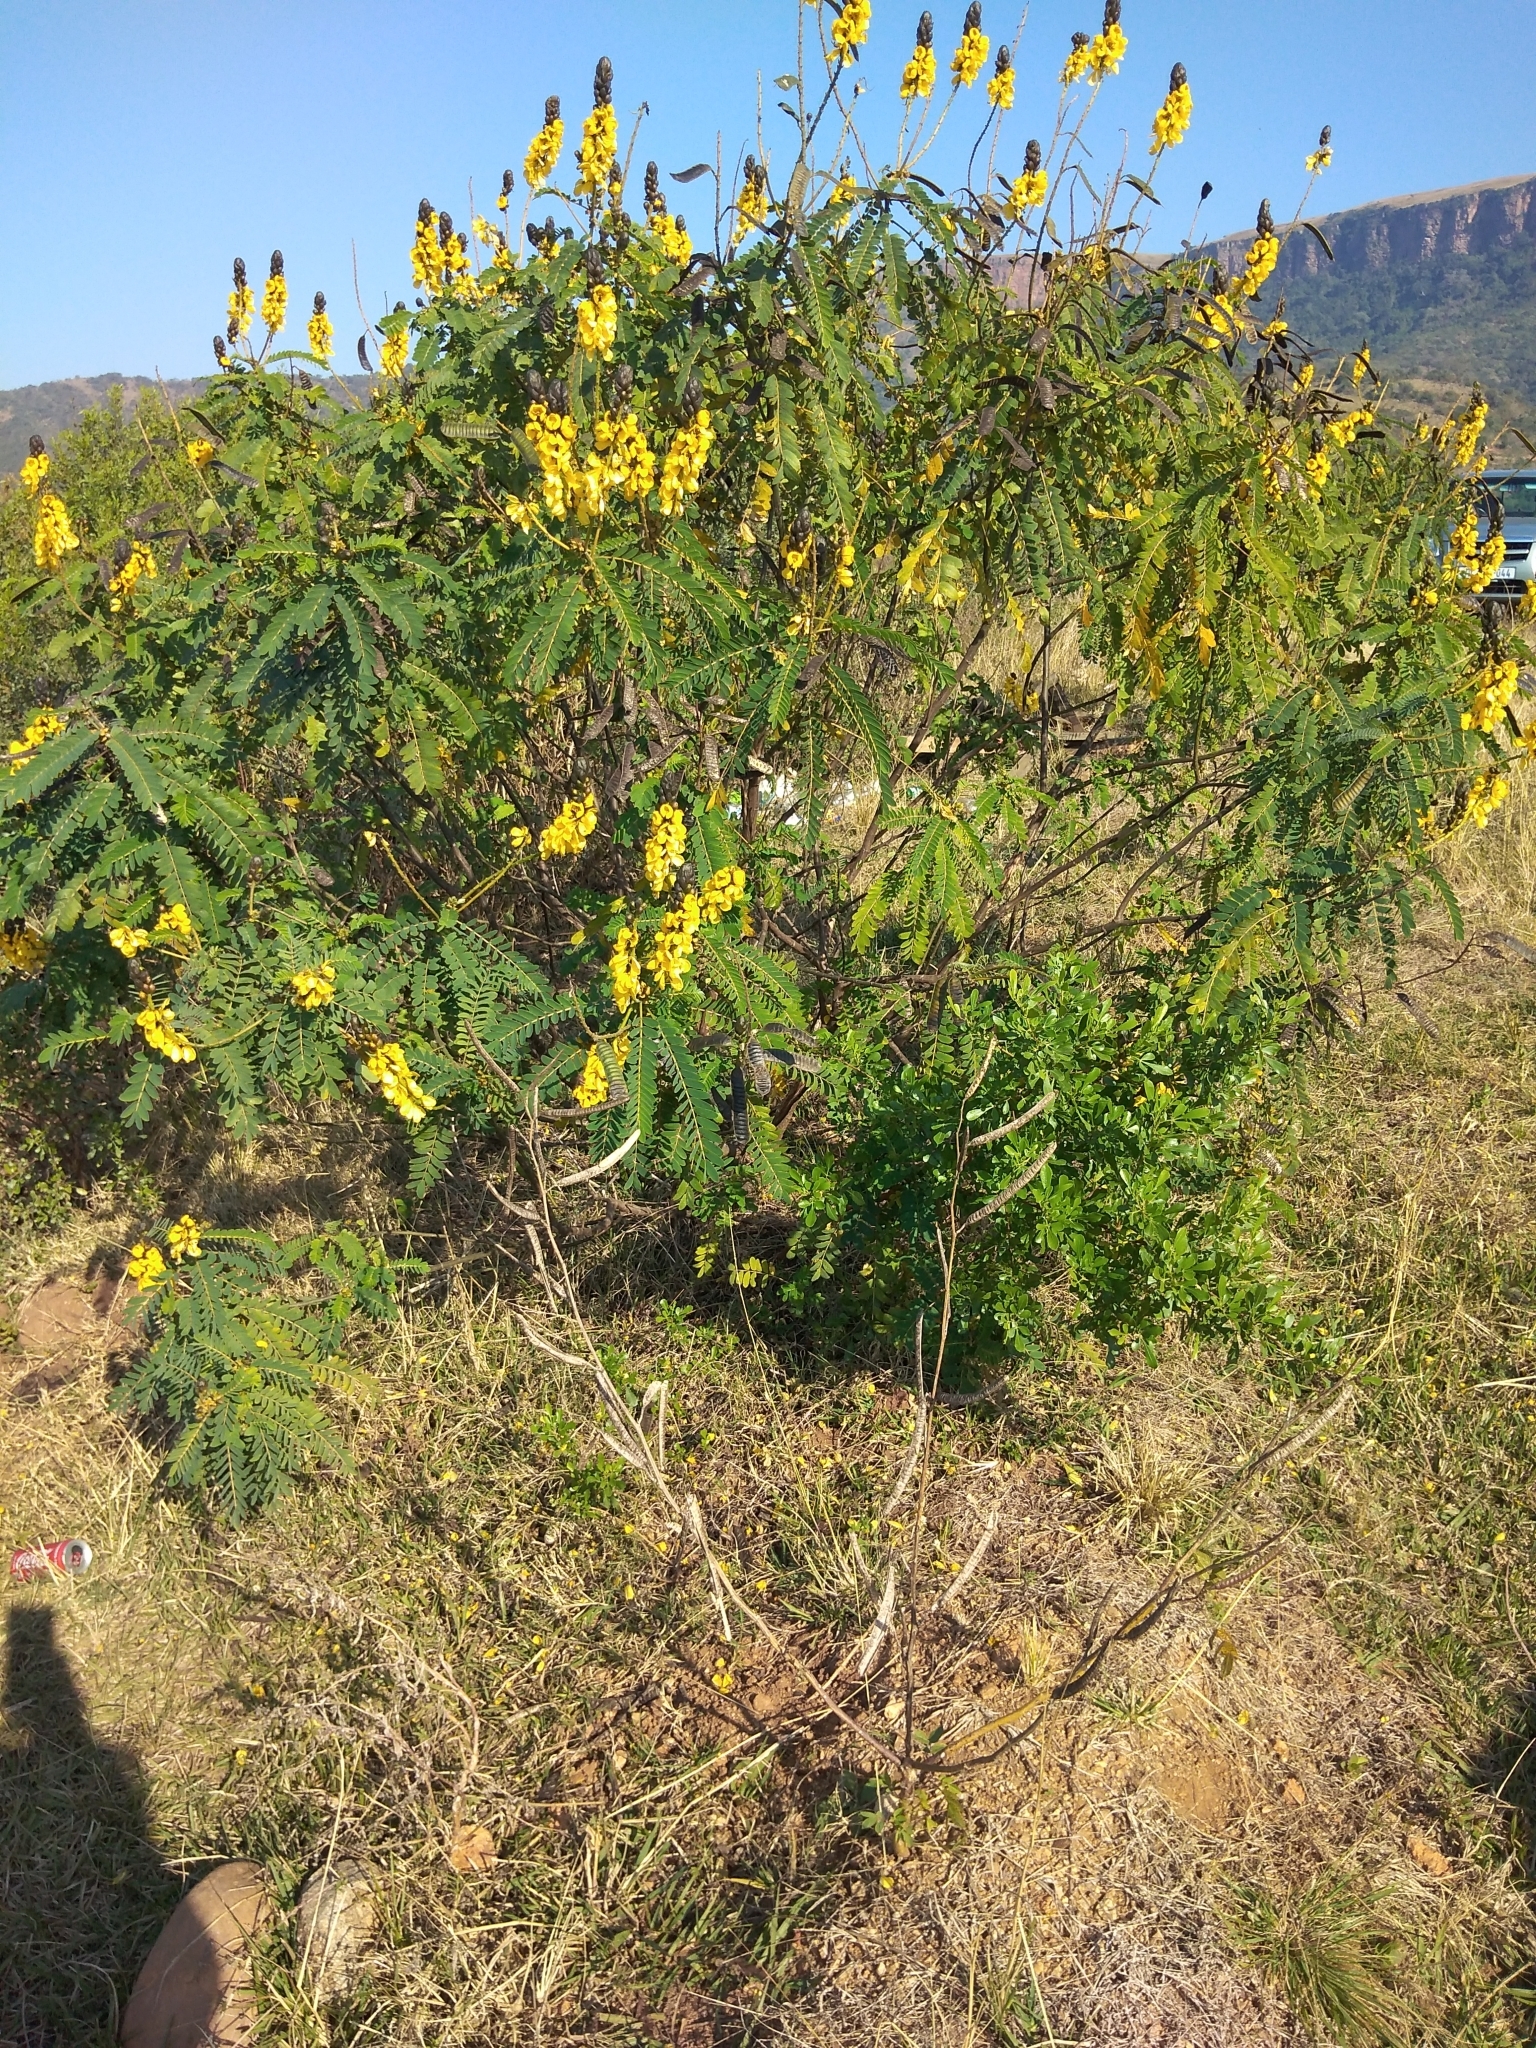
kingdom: Plantae
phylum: Tracheophyta
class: Magnoliopsida
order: Fabales
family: Fabaceae
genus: Senna
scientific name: Senna didymobotrya
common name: African senna
